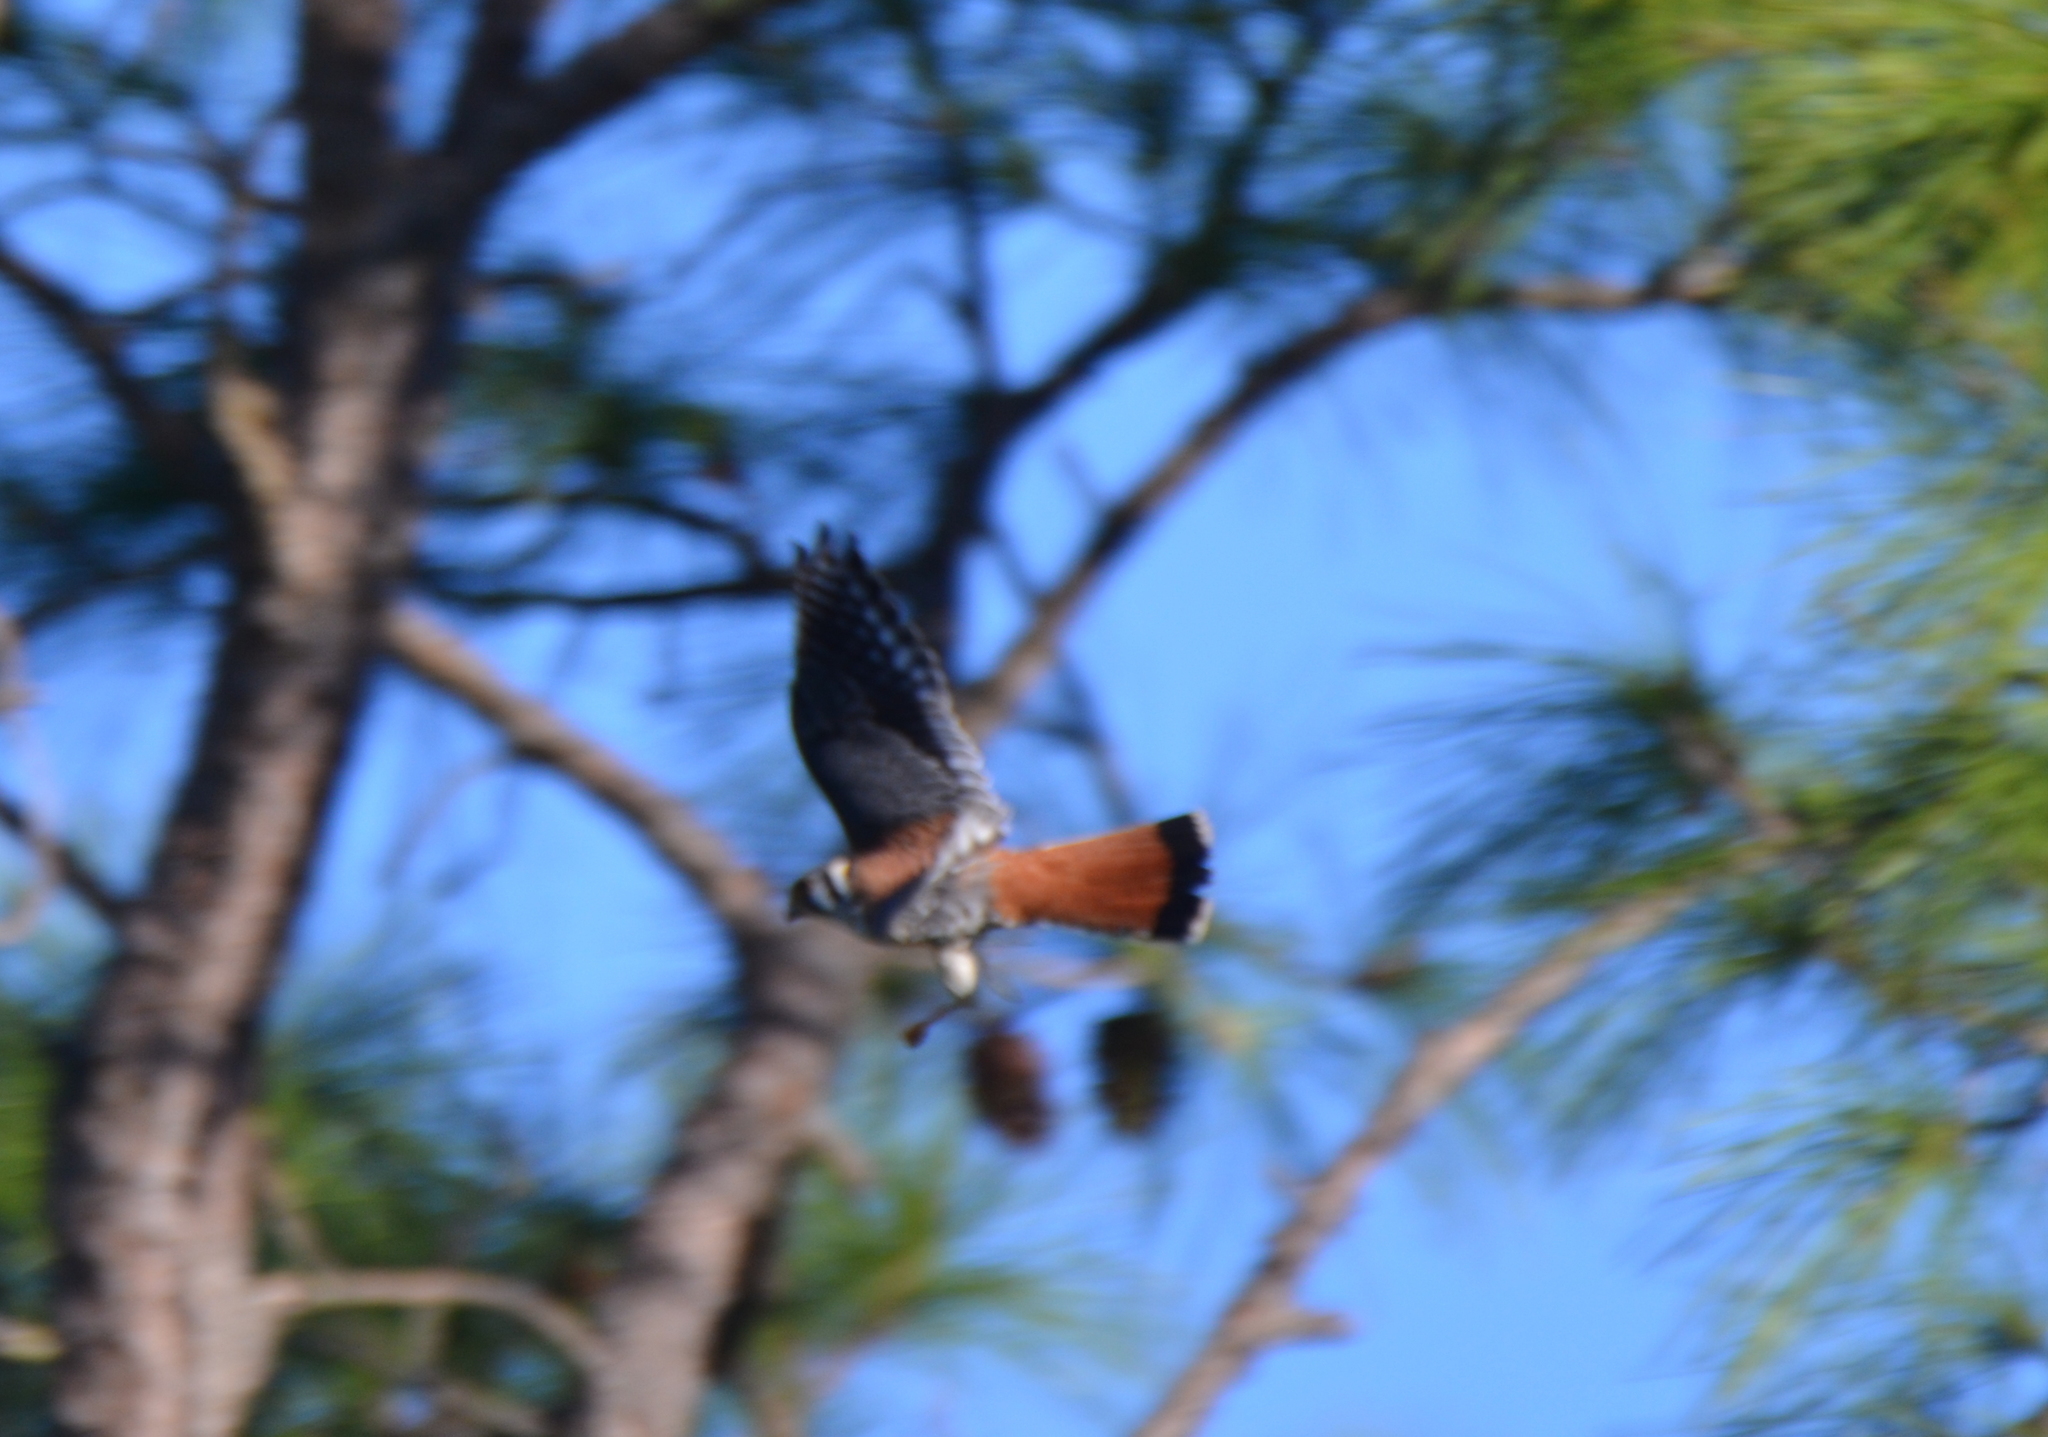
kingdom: Animalia
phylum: Chordata
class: Aves
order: Falconiformes
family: Falconidae
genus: Falco
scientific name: Falco sparverius
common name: American kestrel
